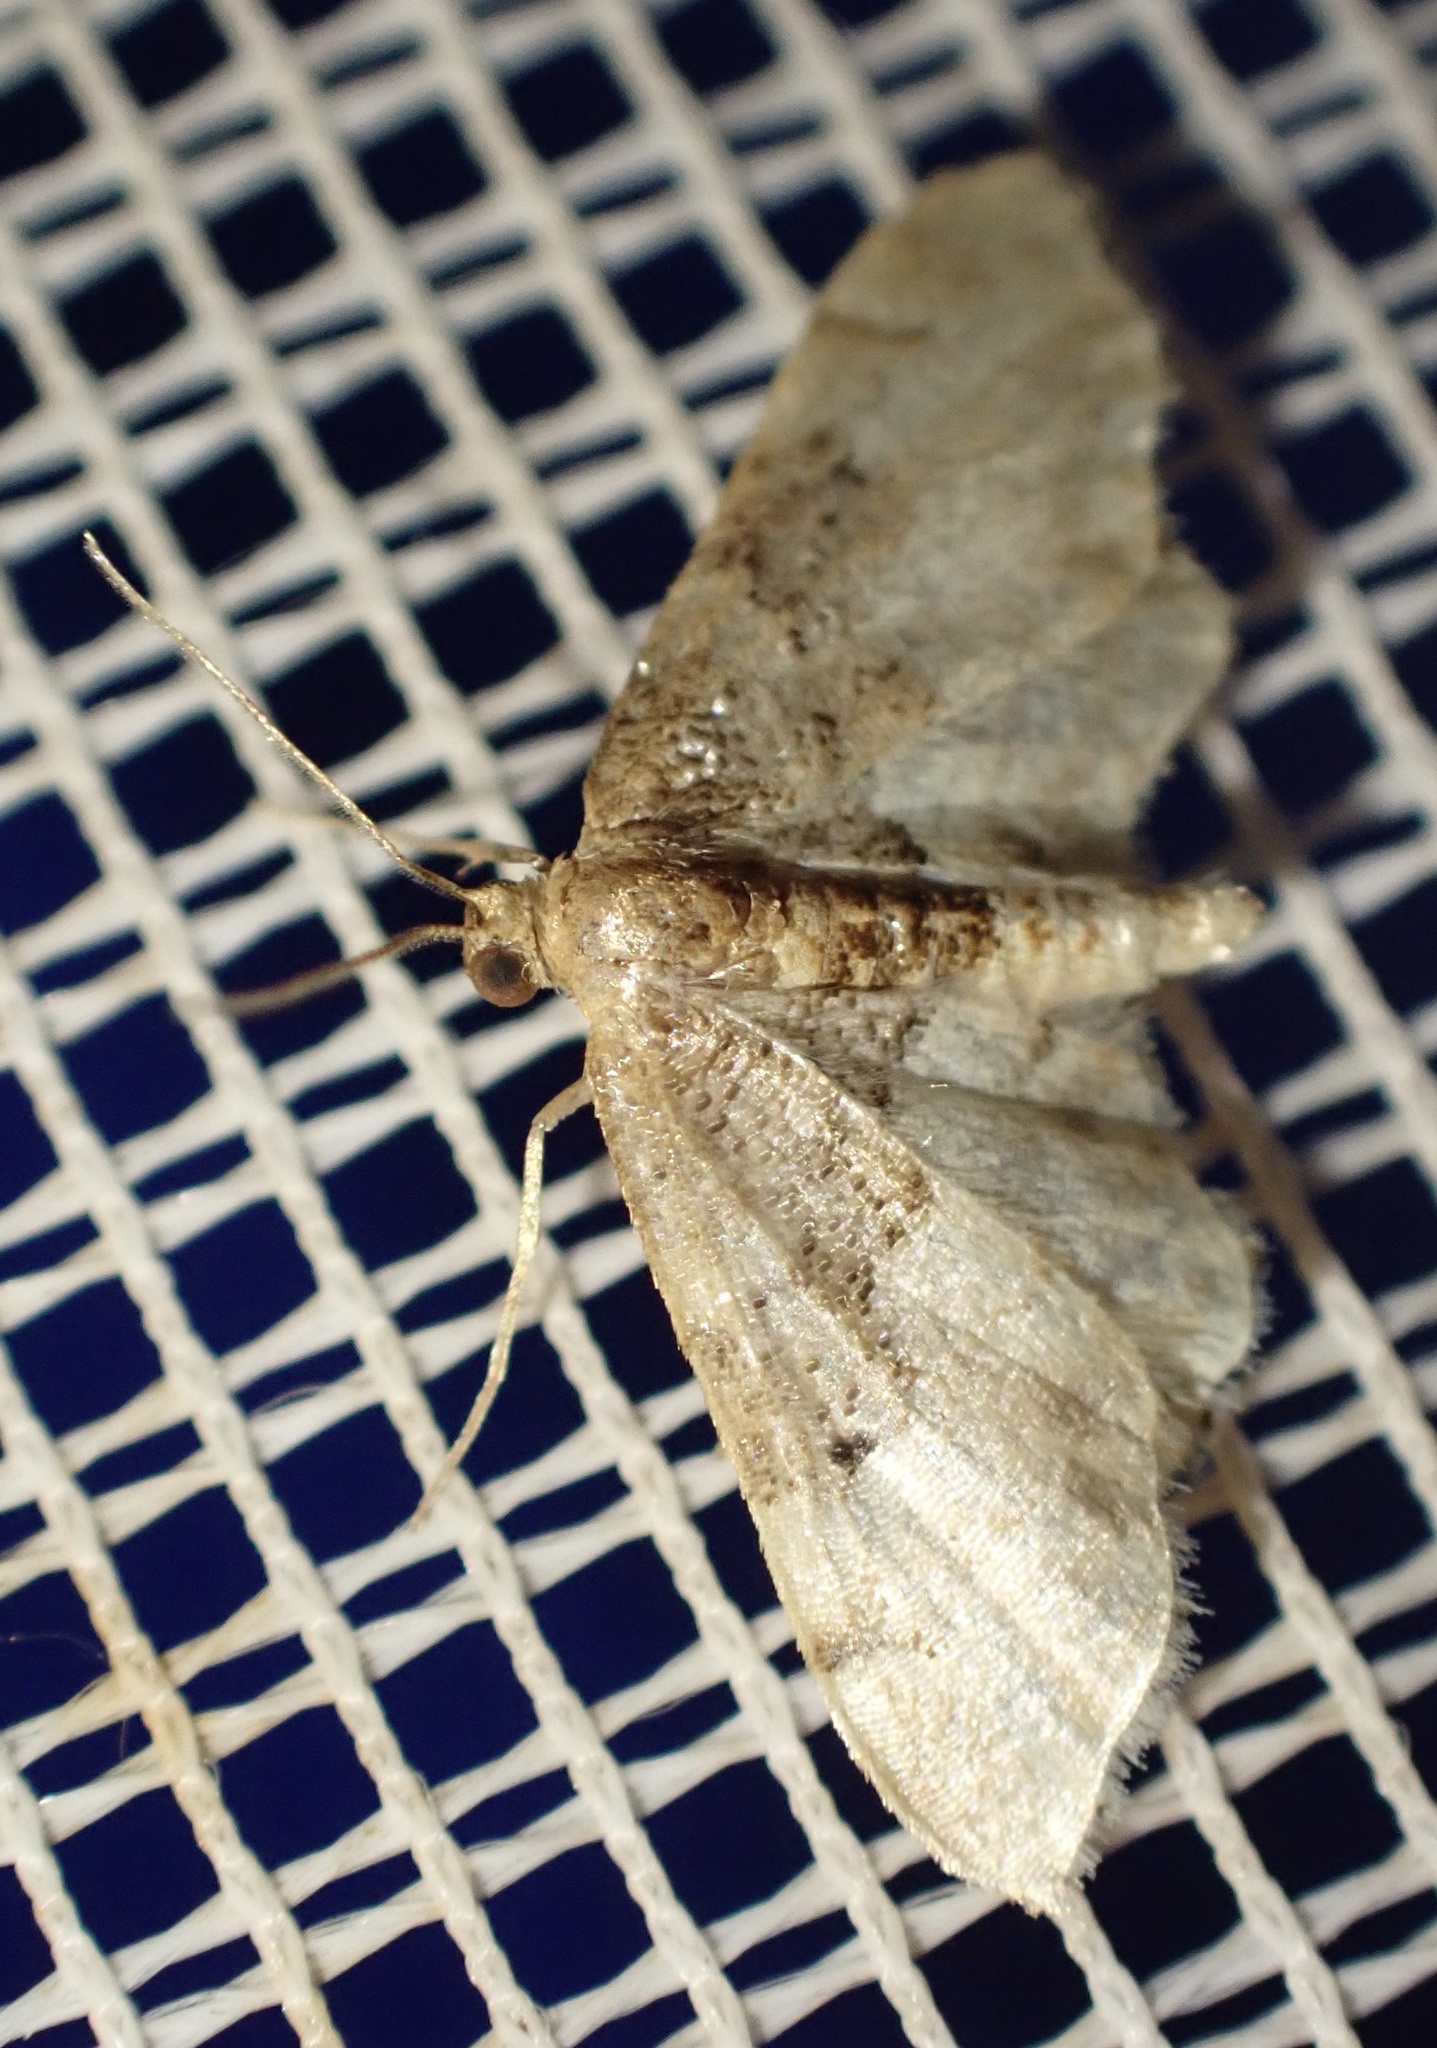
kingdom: Animalia
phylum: Arthropoda
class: Insecta
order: Lepidoptera
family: Geometridae
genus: Idaea
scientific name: Idaea completa
